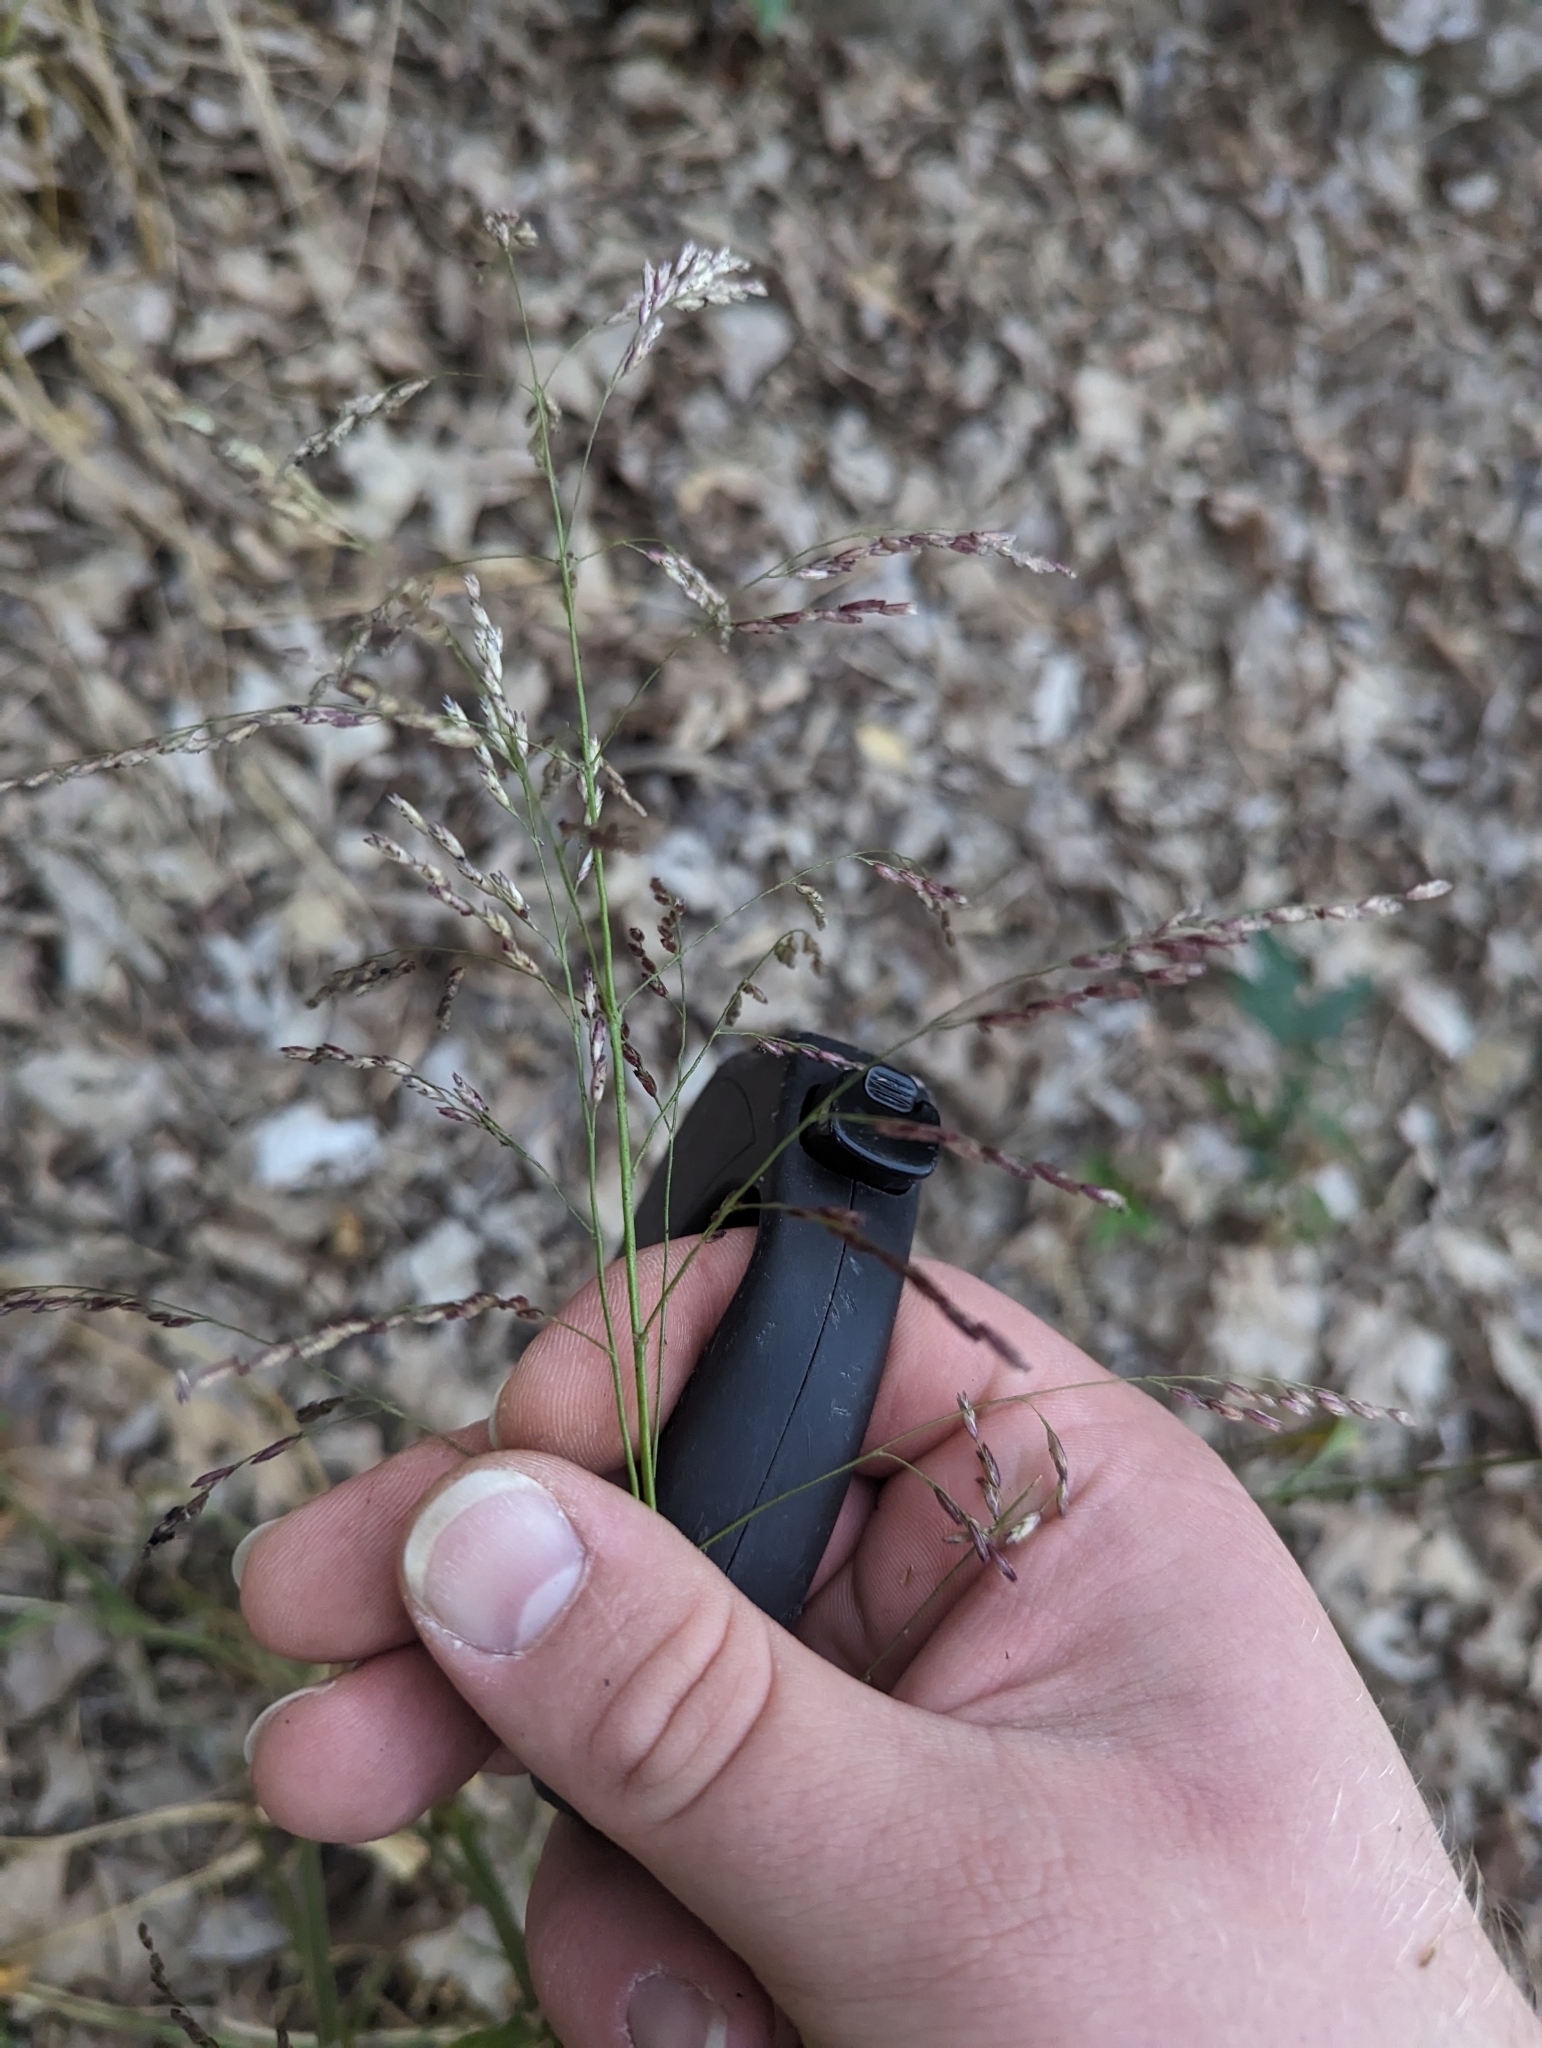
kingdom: Plantae
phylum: Tracheophyta
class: Liliopsida
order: Poales
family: Poaceae
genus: Tridens
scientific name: Tridens flavus
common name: Purpletop
